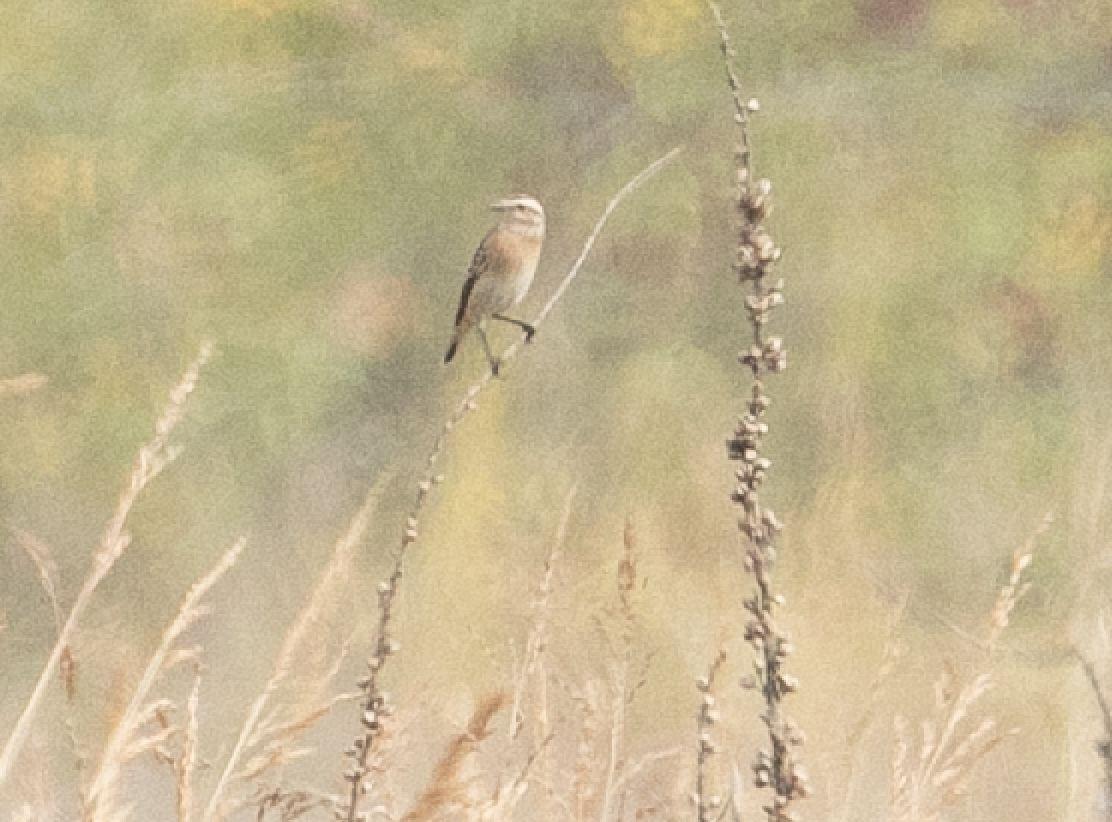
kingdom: Animalia
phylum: Chordata
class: Aves
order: Passeriformes
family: Muscicapidae
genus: Saxicola
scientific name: Saxicola rubetra
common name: Whinchat
